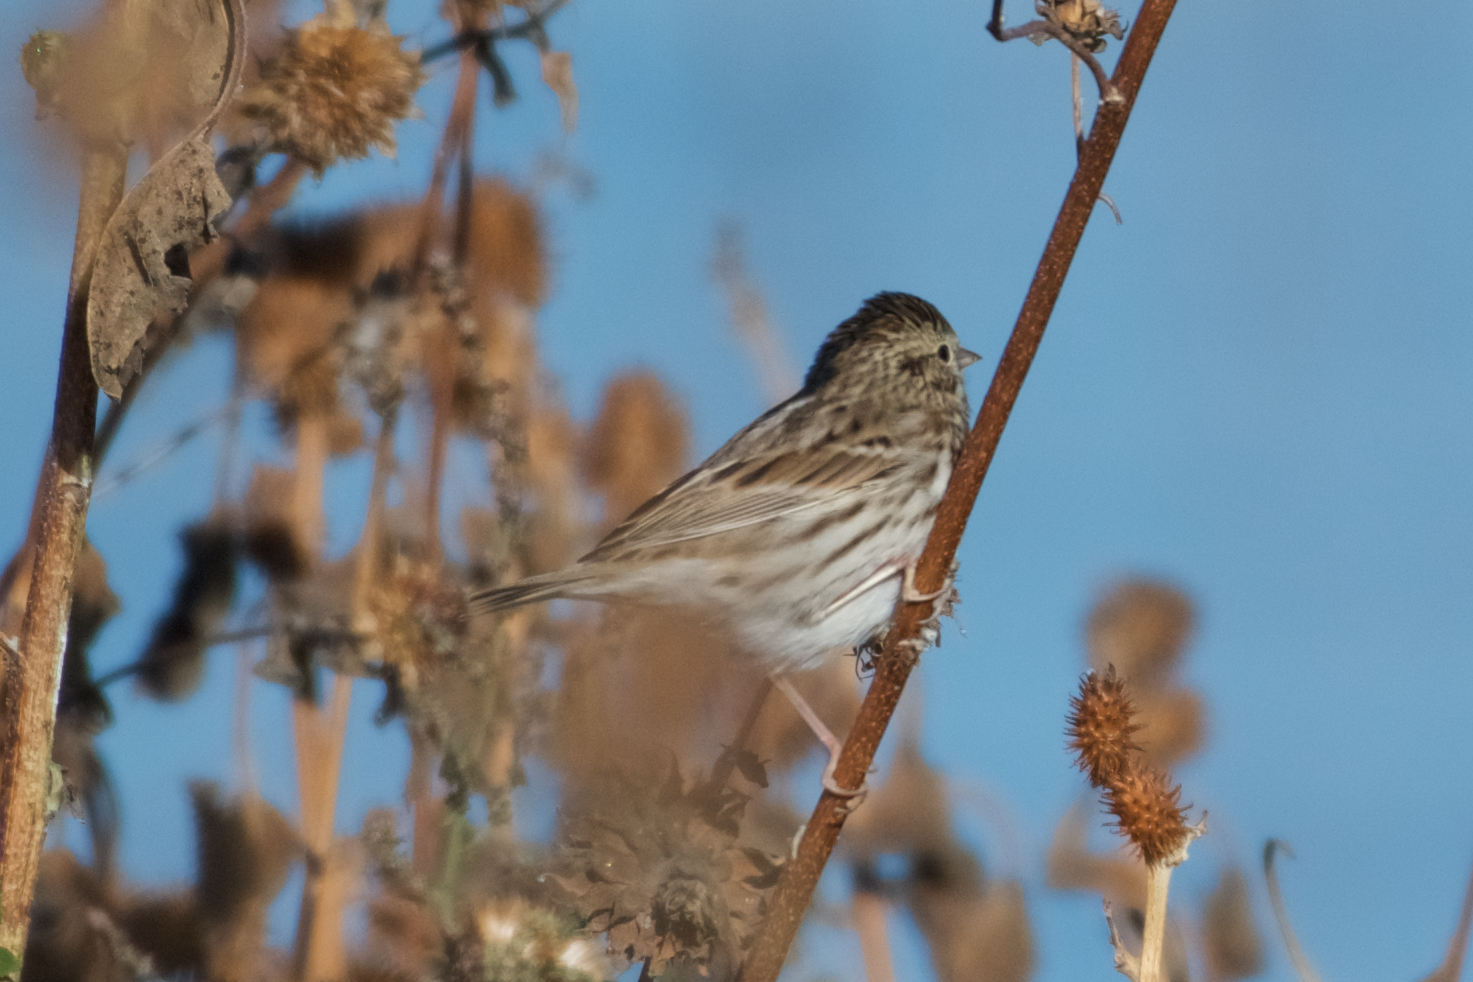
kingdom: Animalia
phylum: Chordata
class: Aves
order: Passeriformes
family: Passerellidae
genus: Passerculus
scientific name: Passerculus sandwichensis
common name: Savannah sparrow
